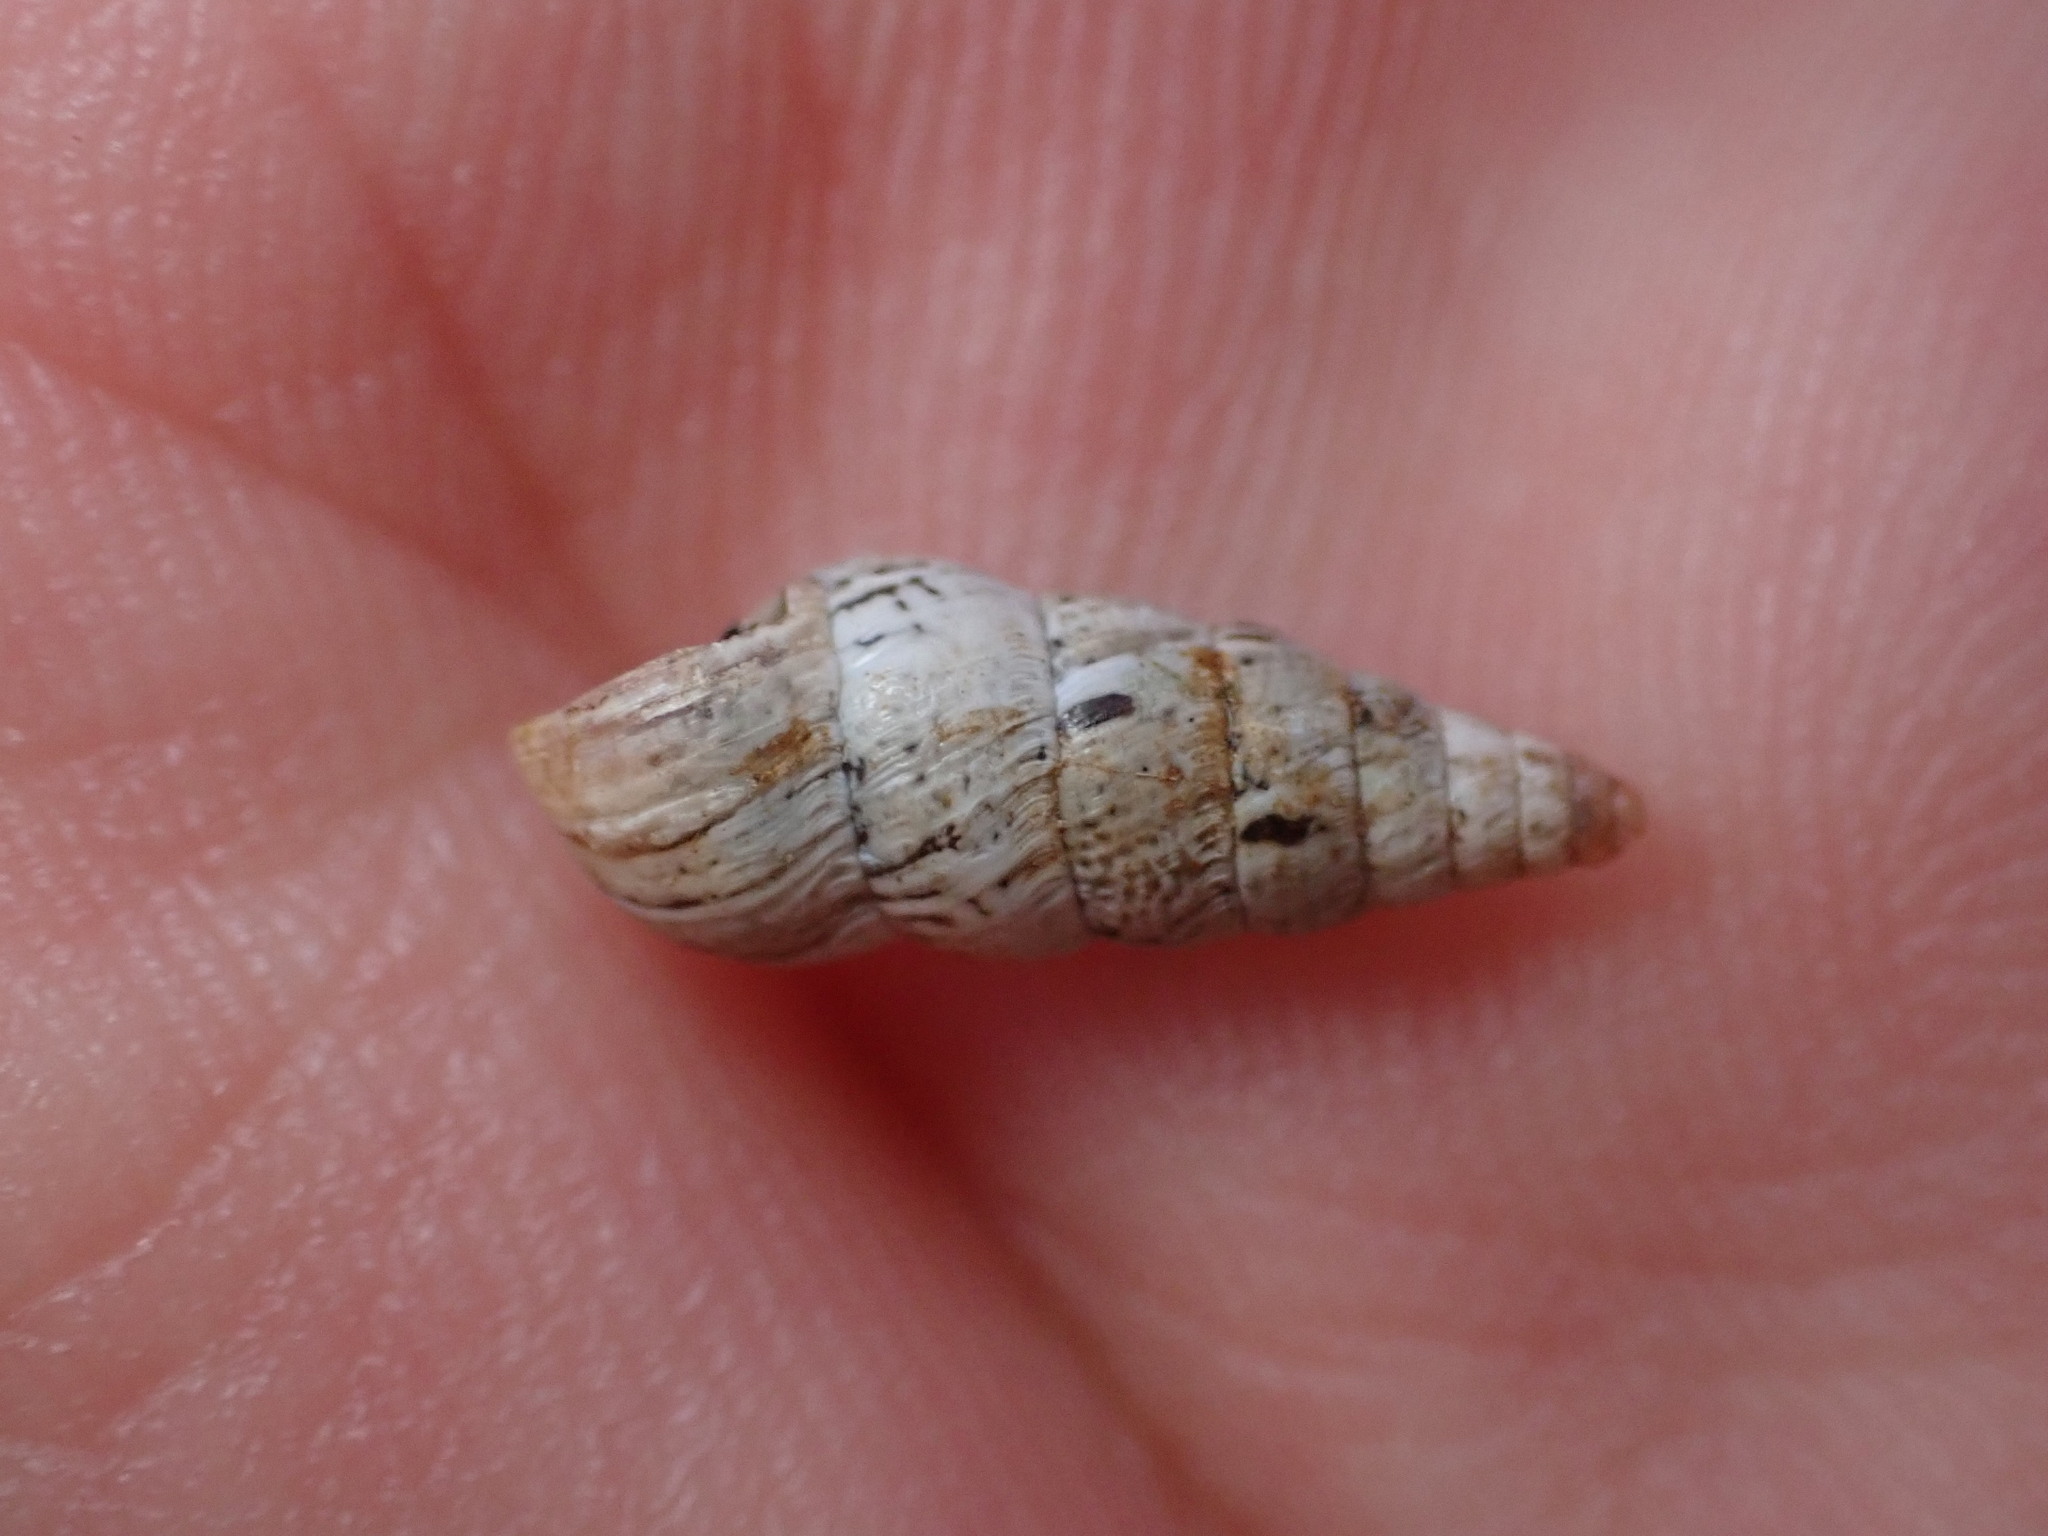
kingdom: Animalia
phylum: Mollusca
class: Gastropoda
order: Stylommatophora
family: Geomitridae
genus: Cochlicella
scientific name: Cochlicella acuta
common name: Pointed snail
